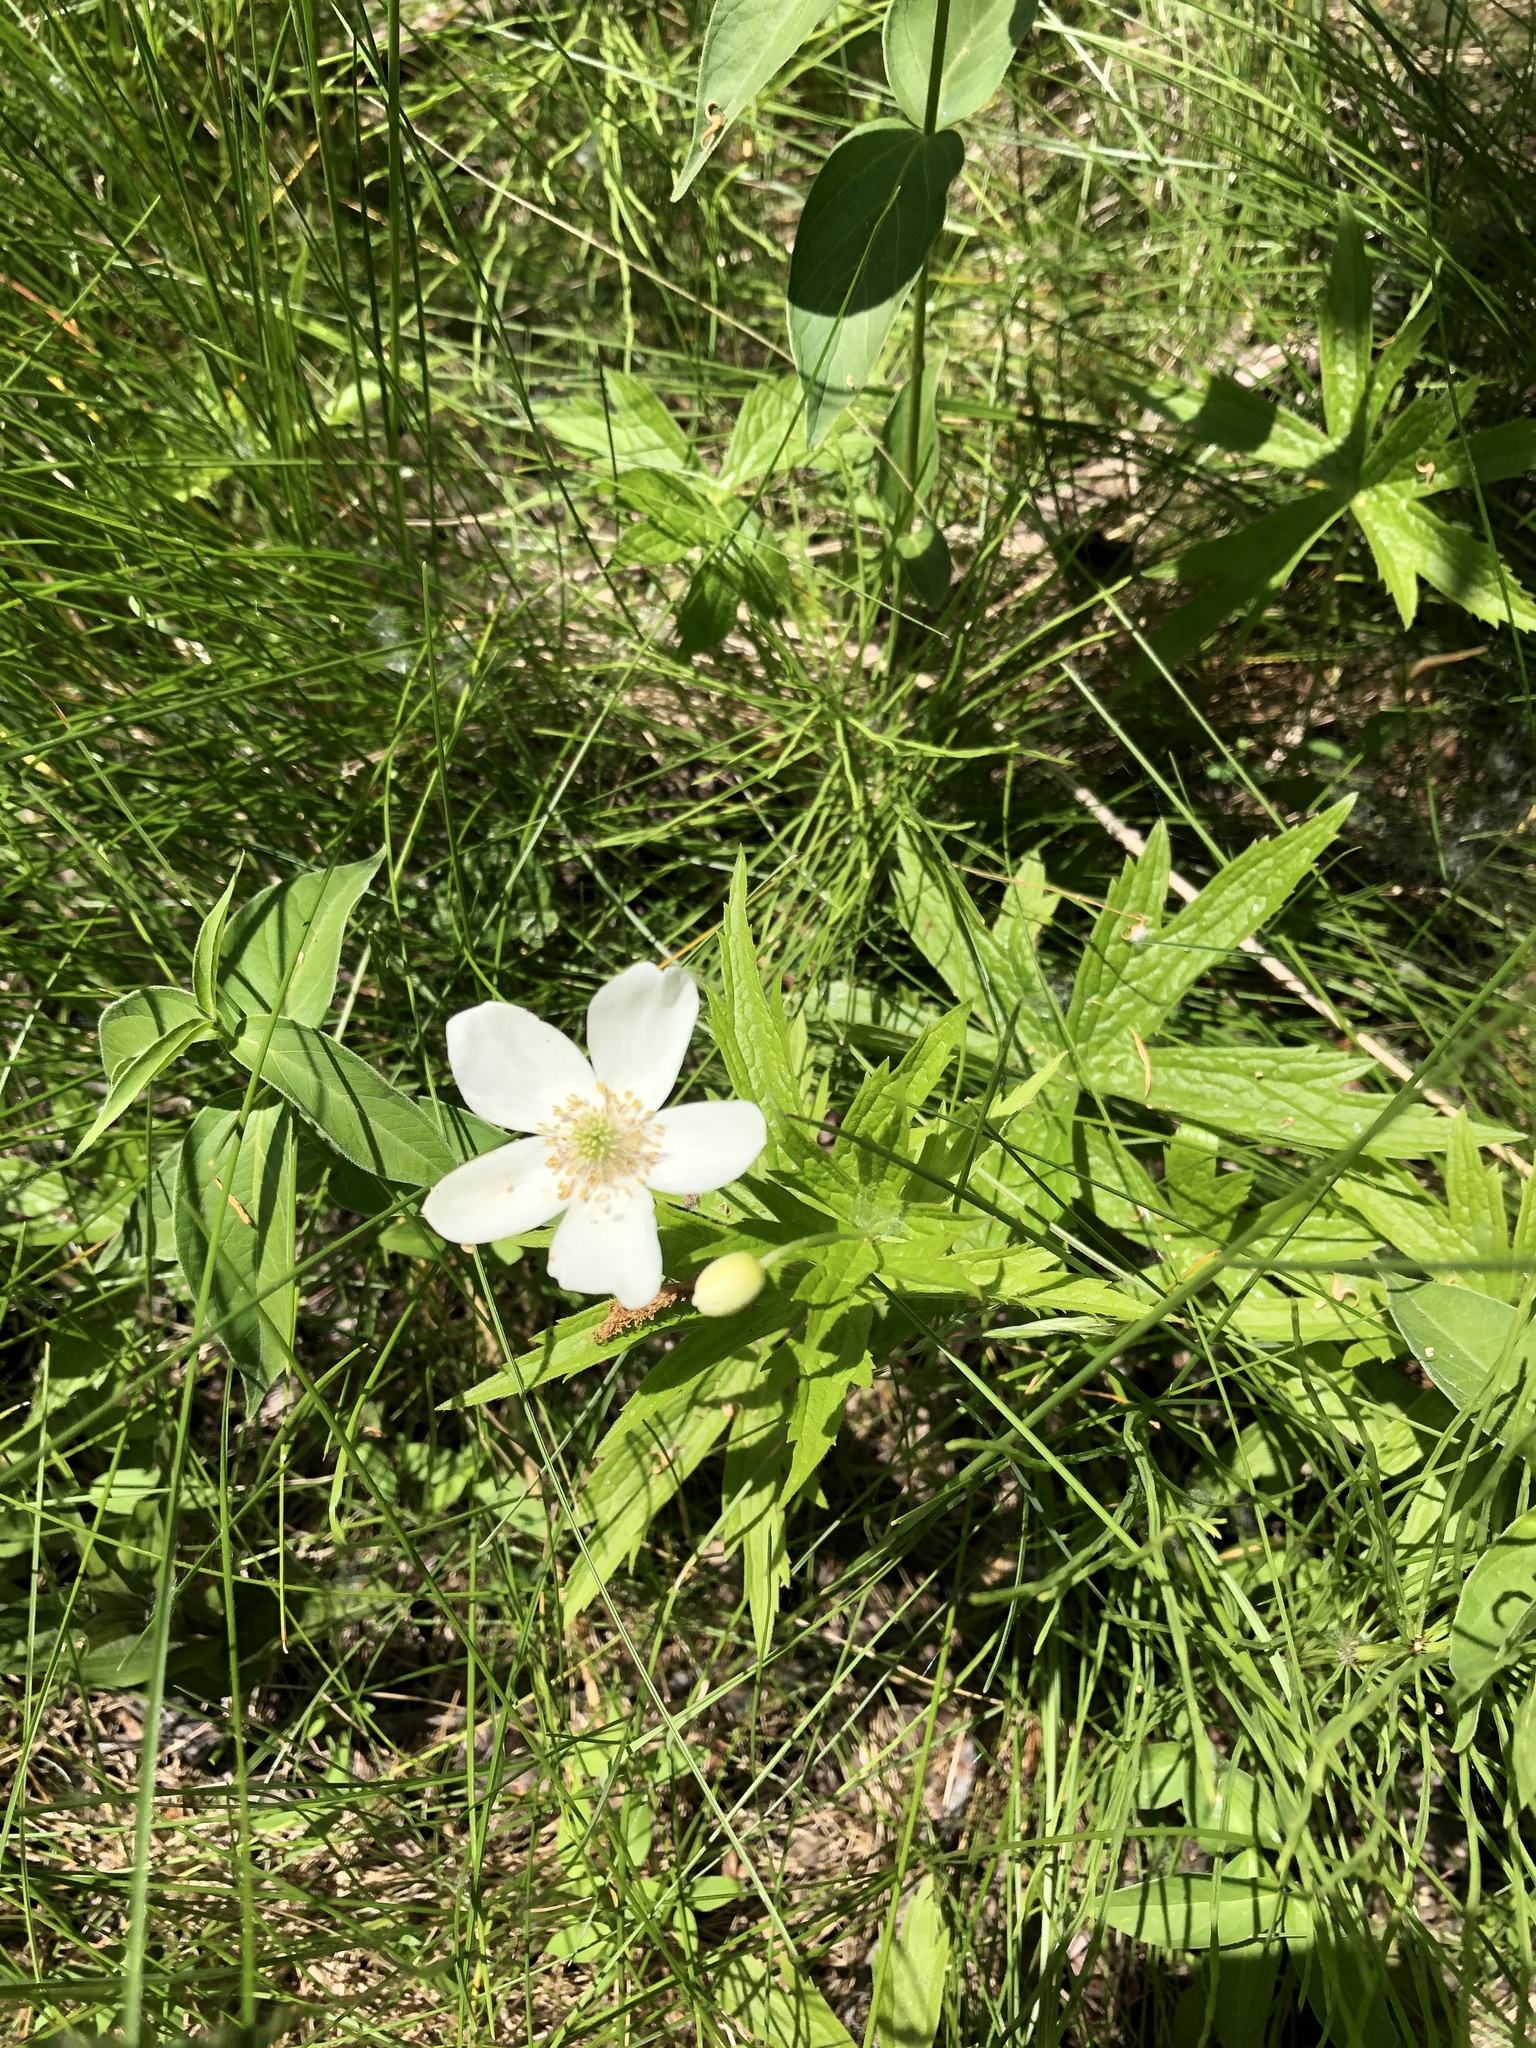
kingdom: Plantae
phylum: Tracheophyta
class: Magnoliopsida
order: Ranunculales
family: Ranunculaceae
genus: Anemonastrum
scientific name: Anemonastrum canadense
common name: Canada anemone
